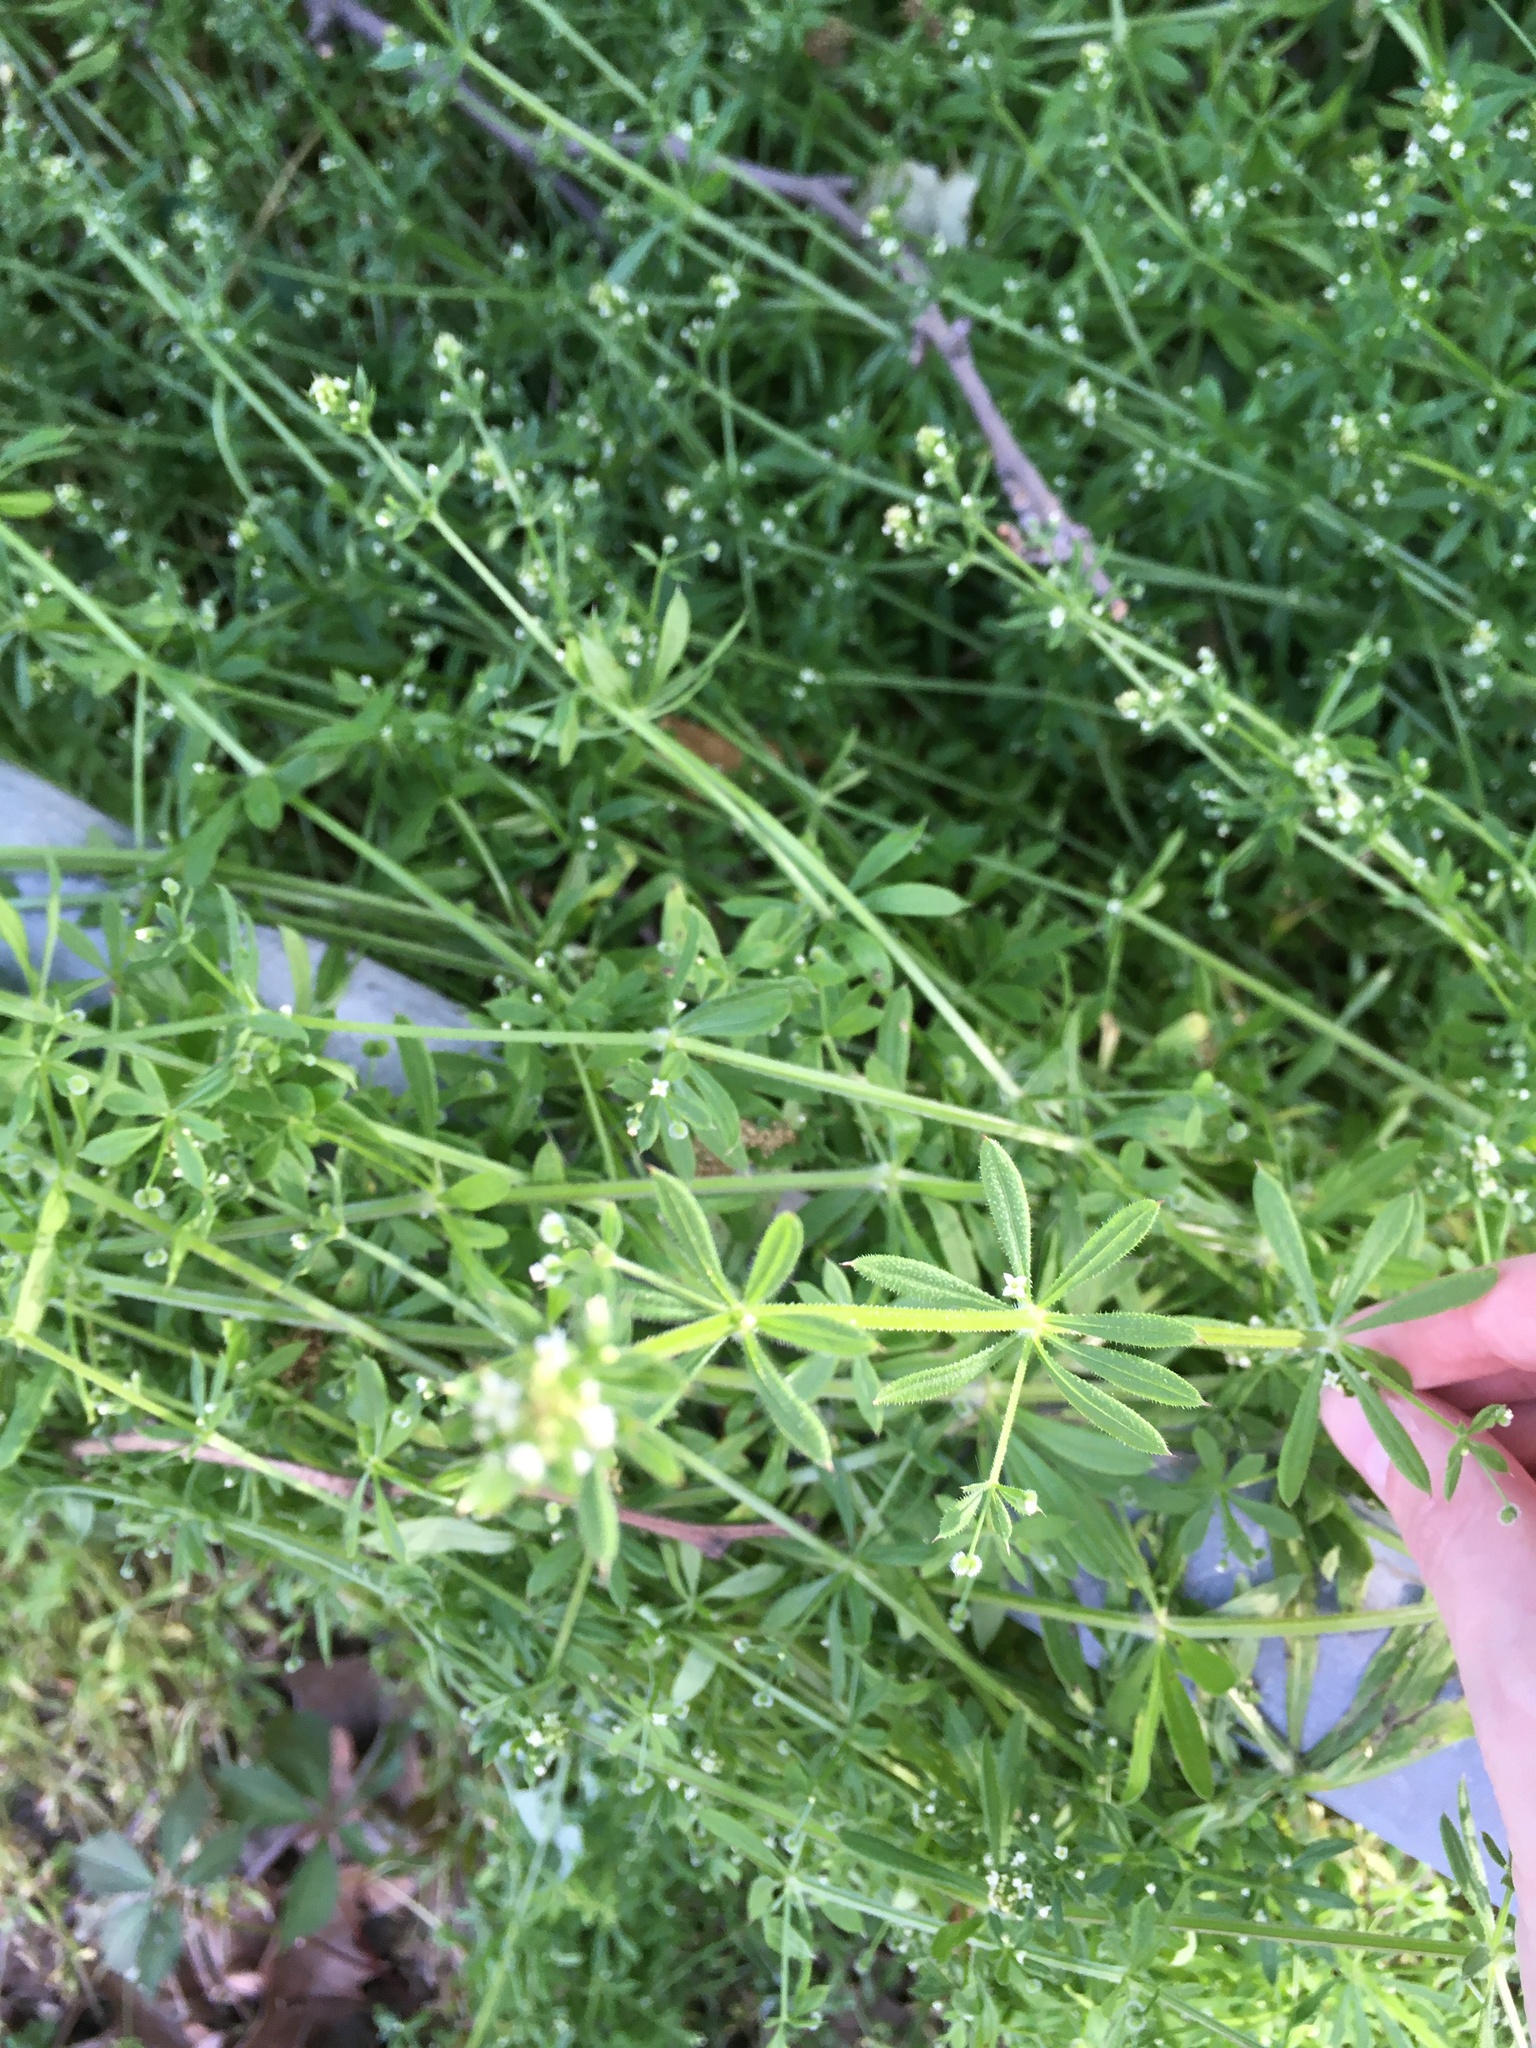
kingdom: Plantae
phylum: Tracheophyta
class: Magnoliopsida
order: Gentianales
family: Rubiaceae
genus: Galium
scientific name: Galium aparine
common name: Cleavers
